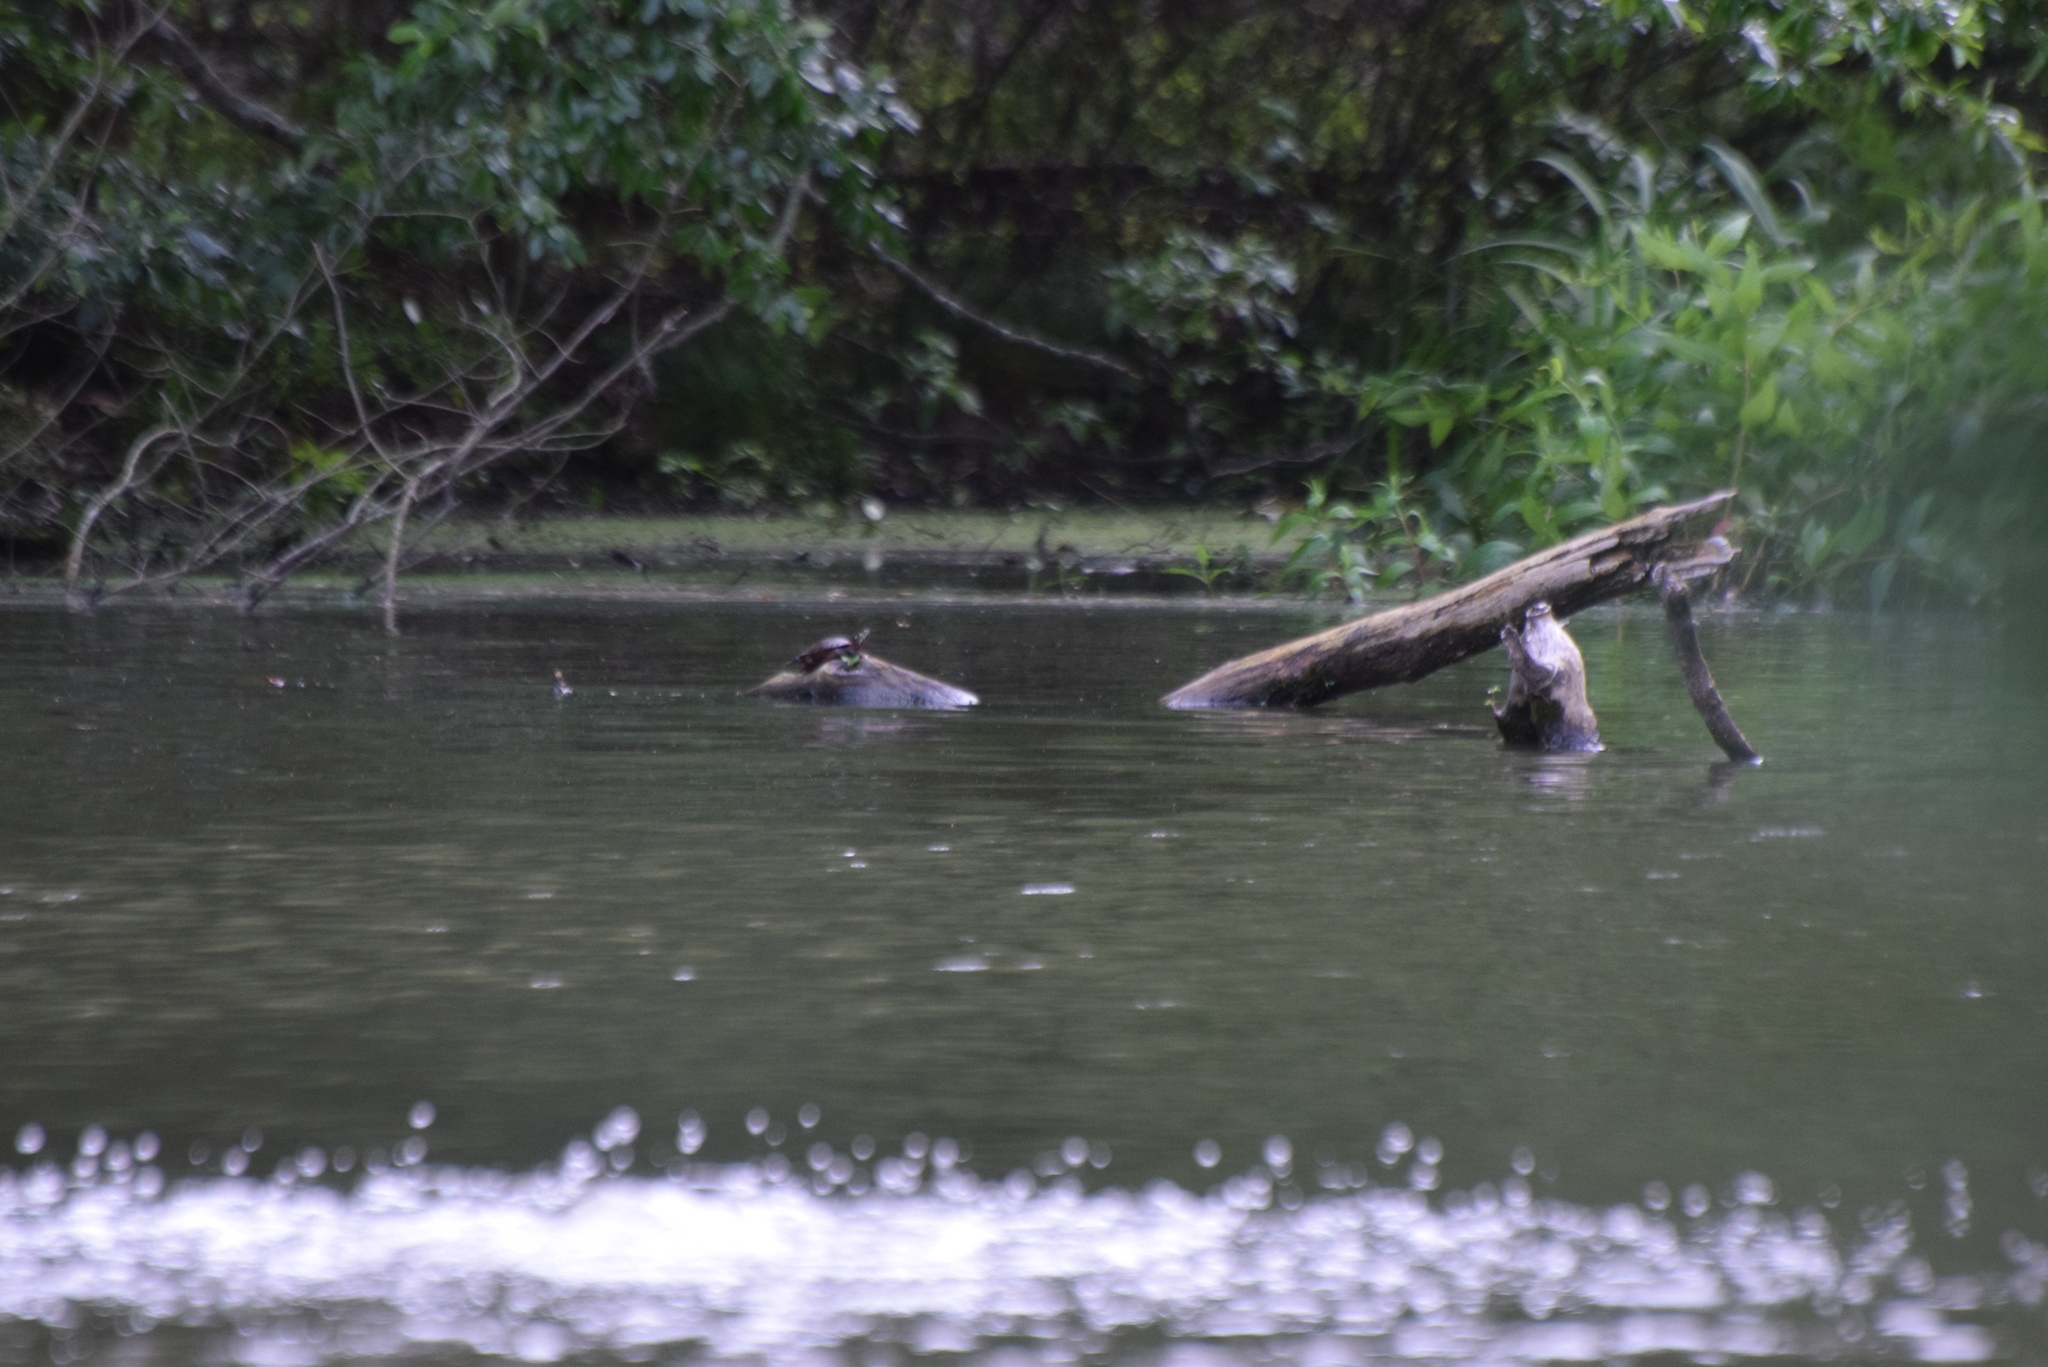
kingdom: Animalia
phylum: Chordata
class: Testudines
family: Emydidae
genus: Chrysemys
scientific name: Chrysemys picta
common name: Painted turtle
